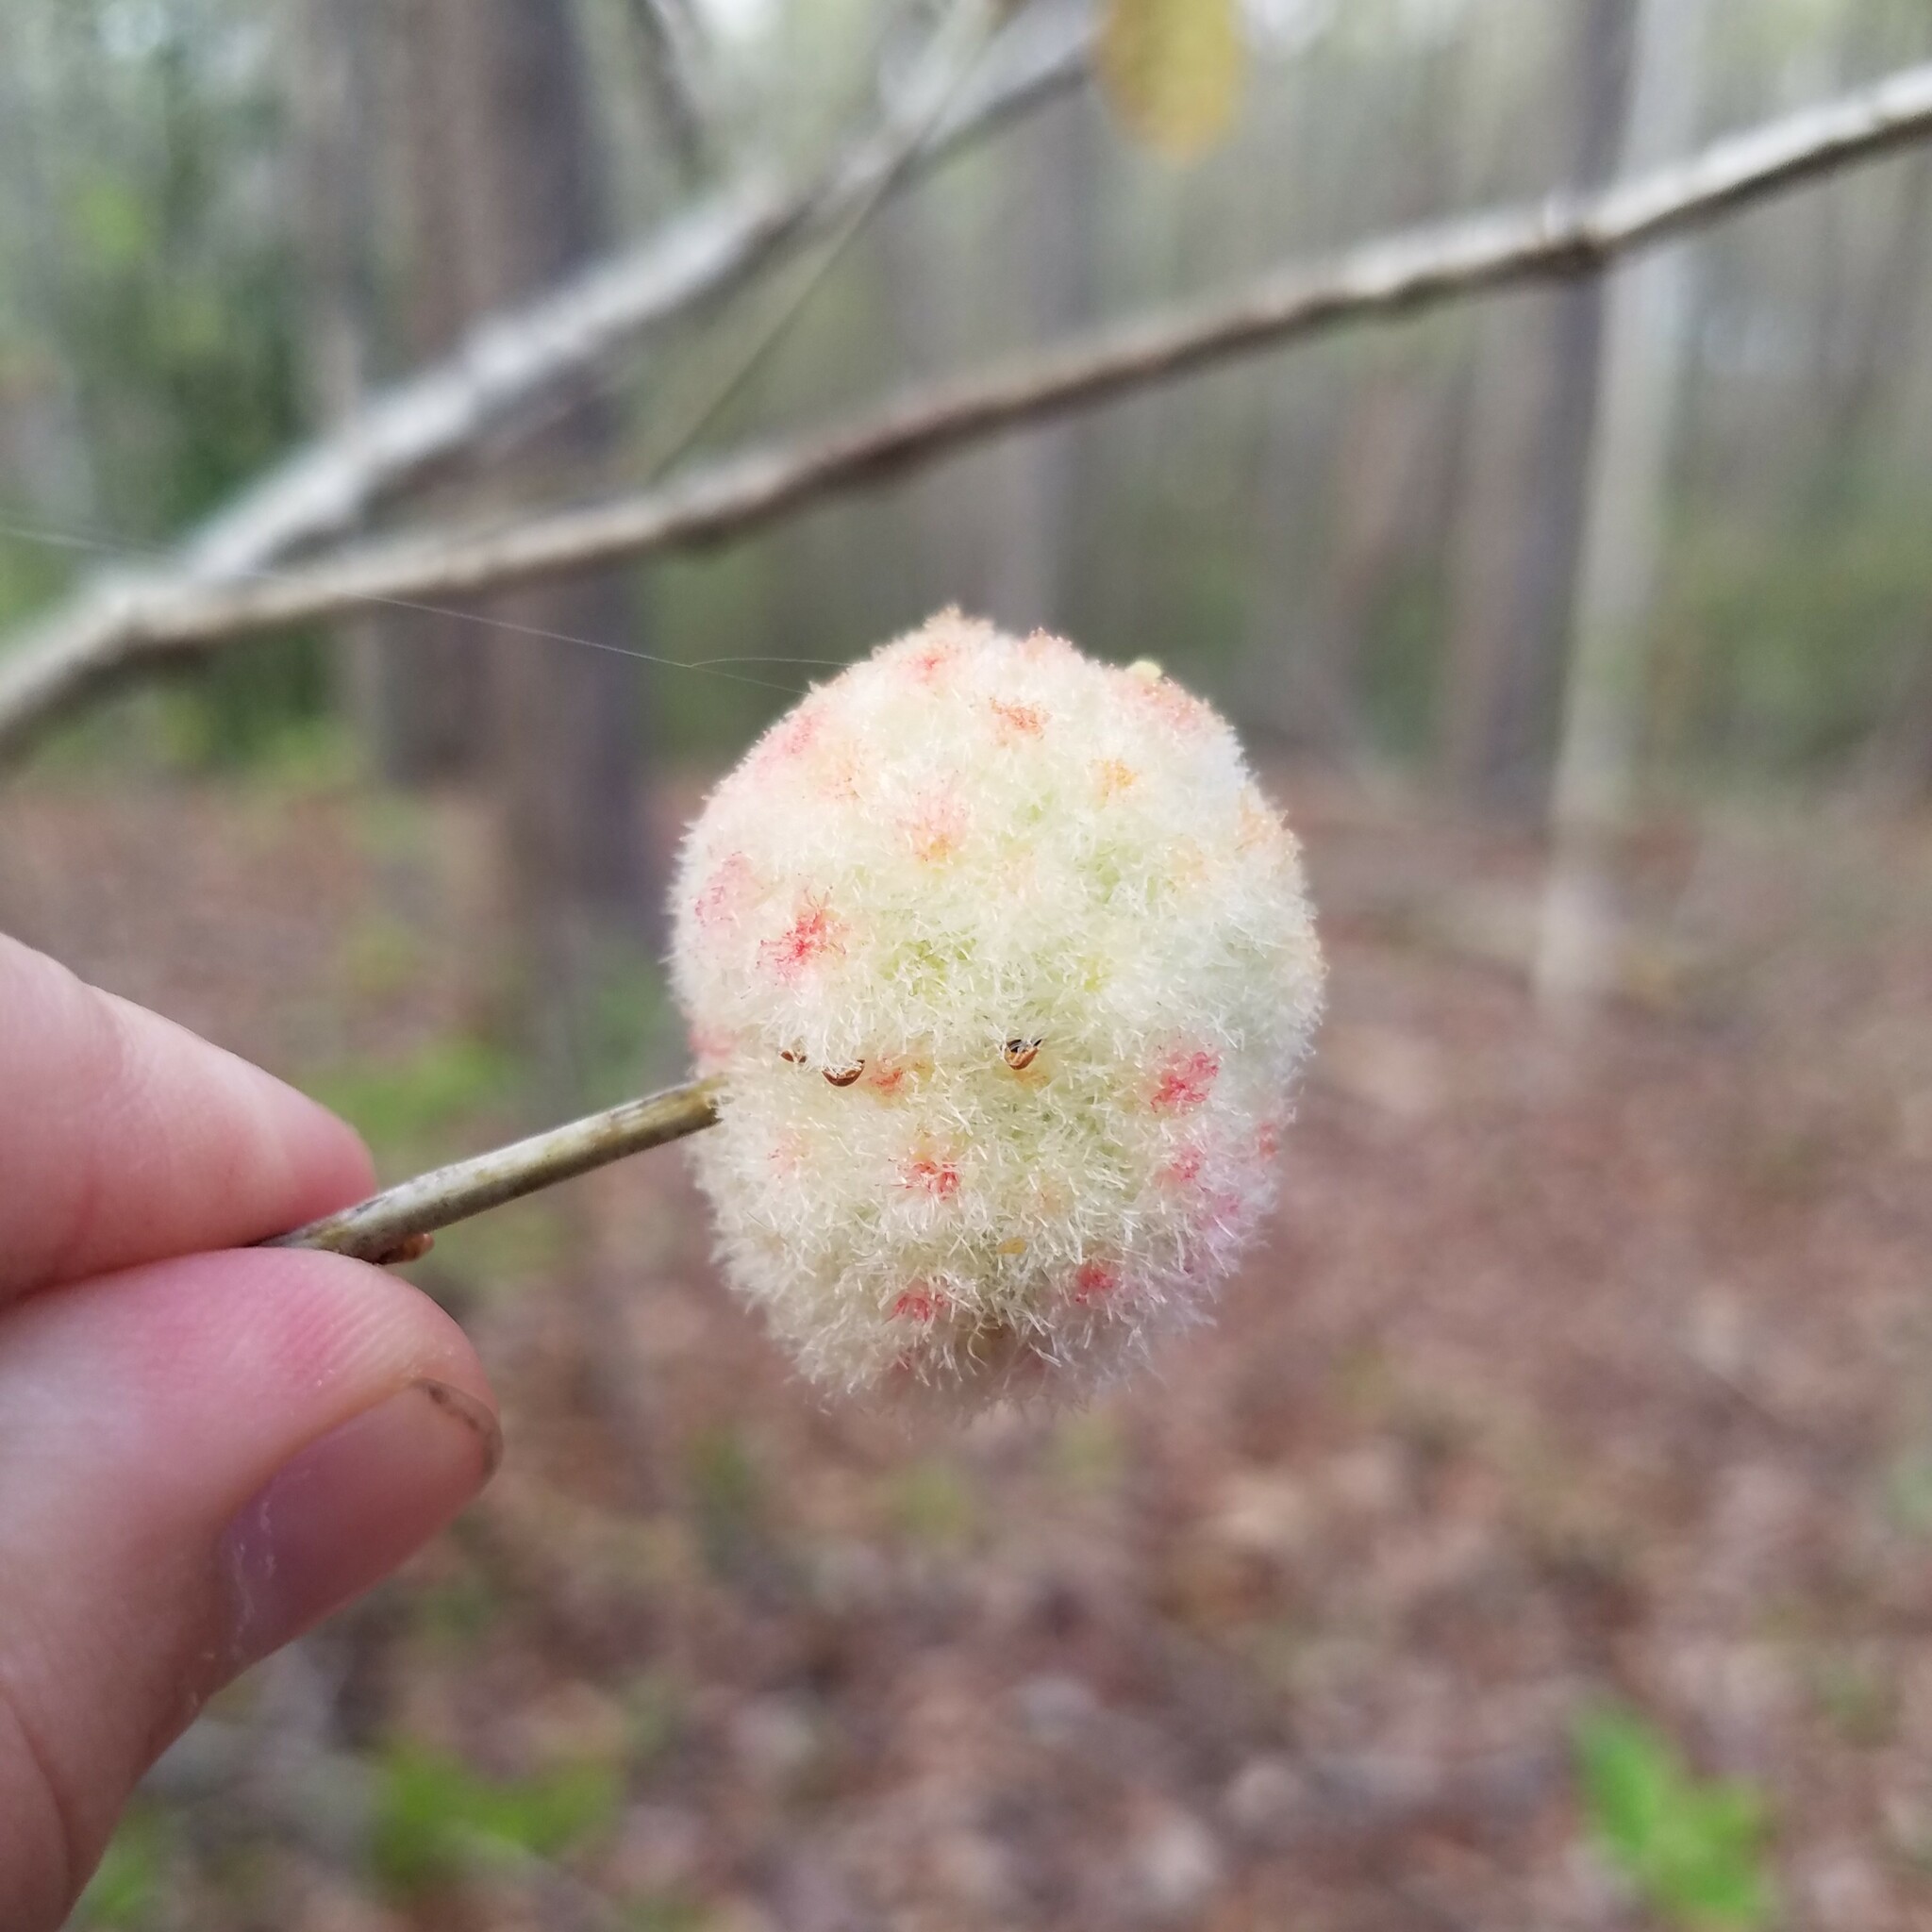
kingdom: Animalia
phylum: Arthropoda
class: Insecta
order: Hymenoptera
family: Cynipidae
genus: Callirhytis
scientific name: Callirhytis
